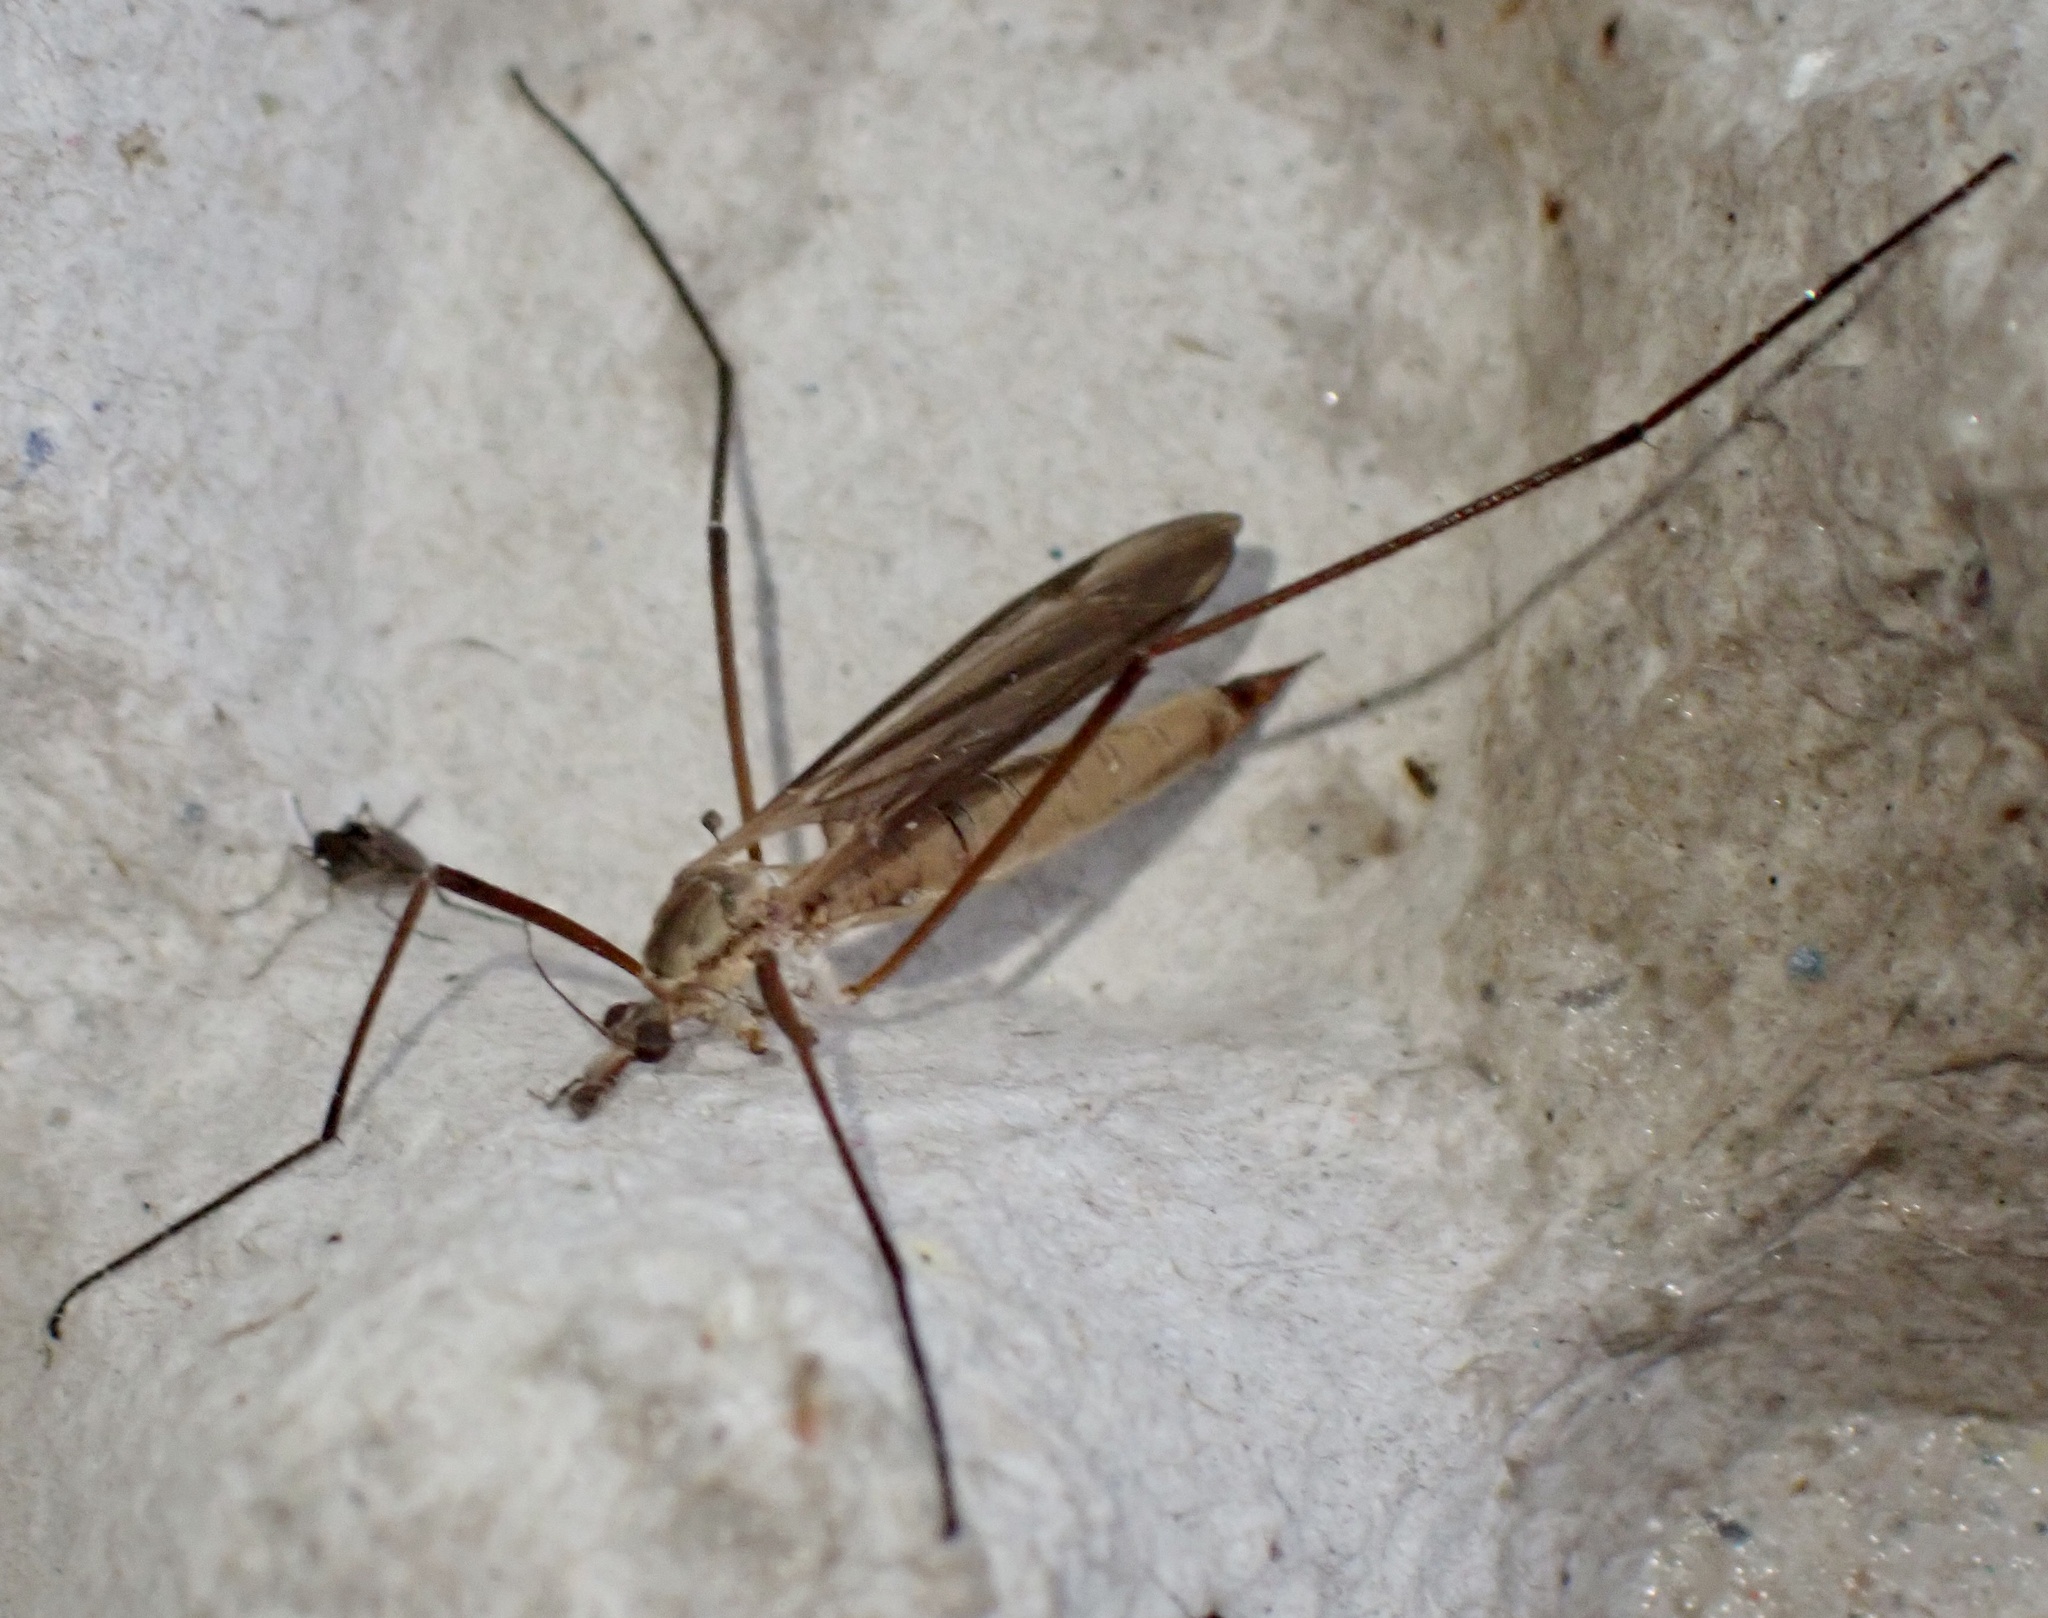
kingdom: Animalia
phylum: Arthropoda
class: Insecta
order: Diptera
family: Tipulidae
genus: Tipula
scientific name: Tipula paludosa
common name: European cranefly
